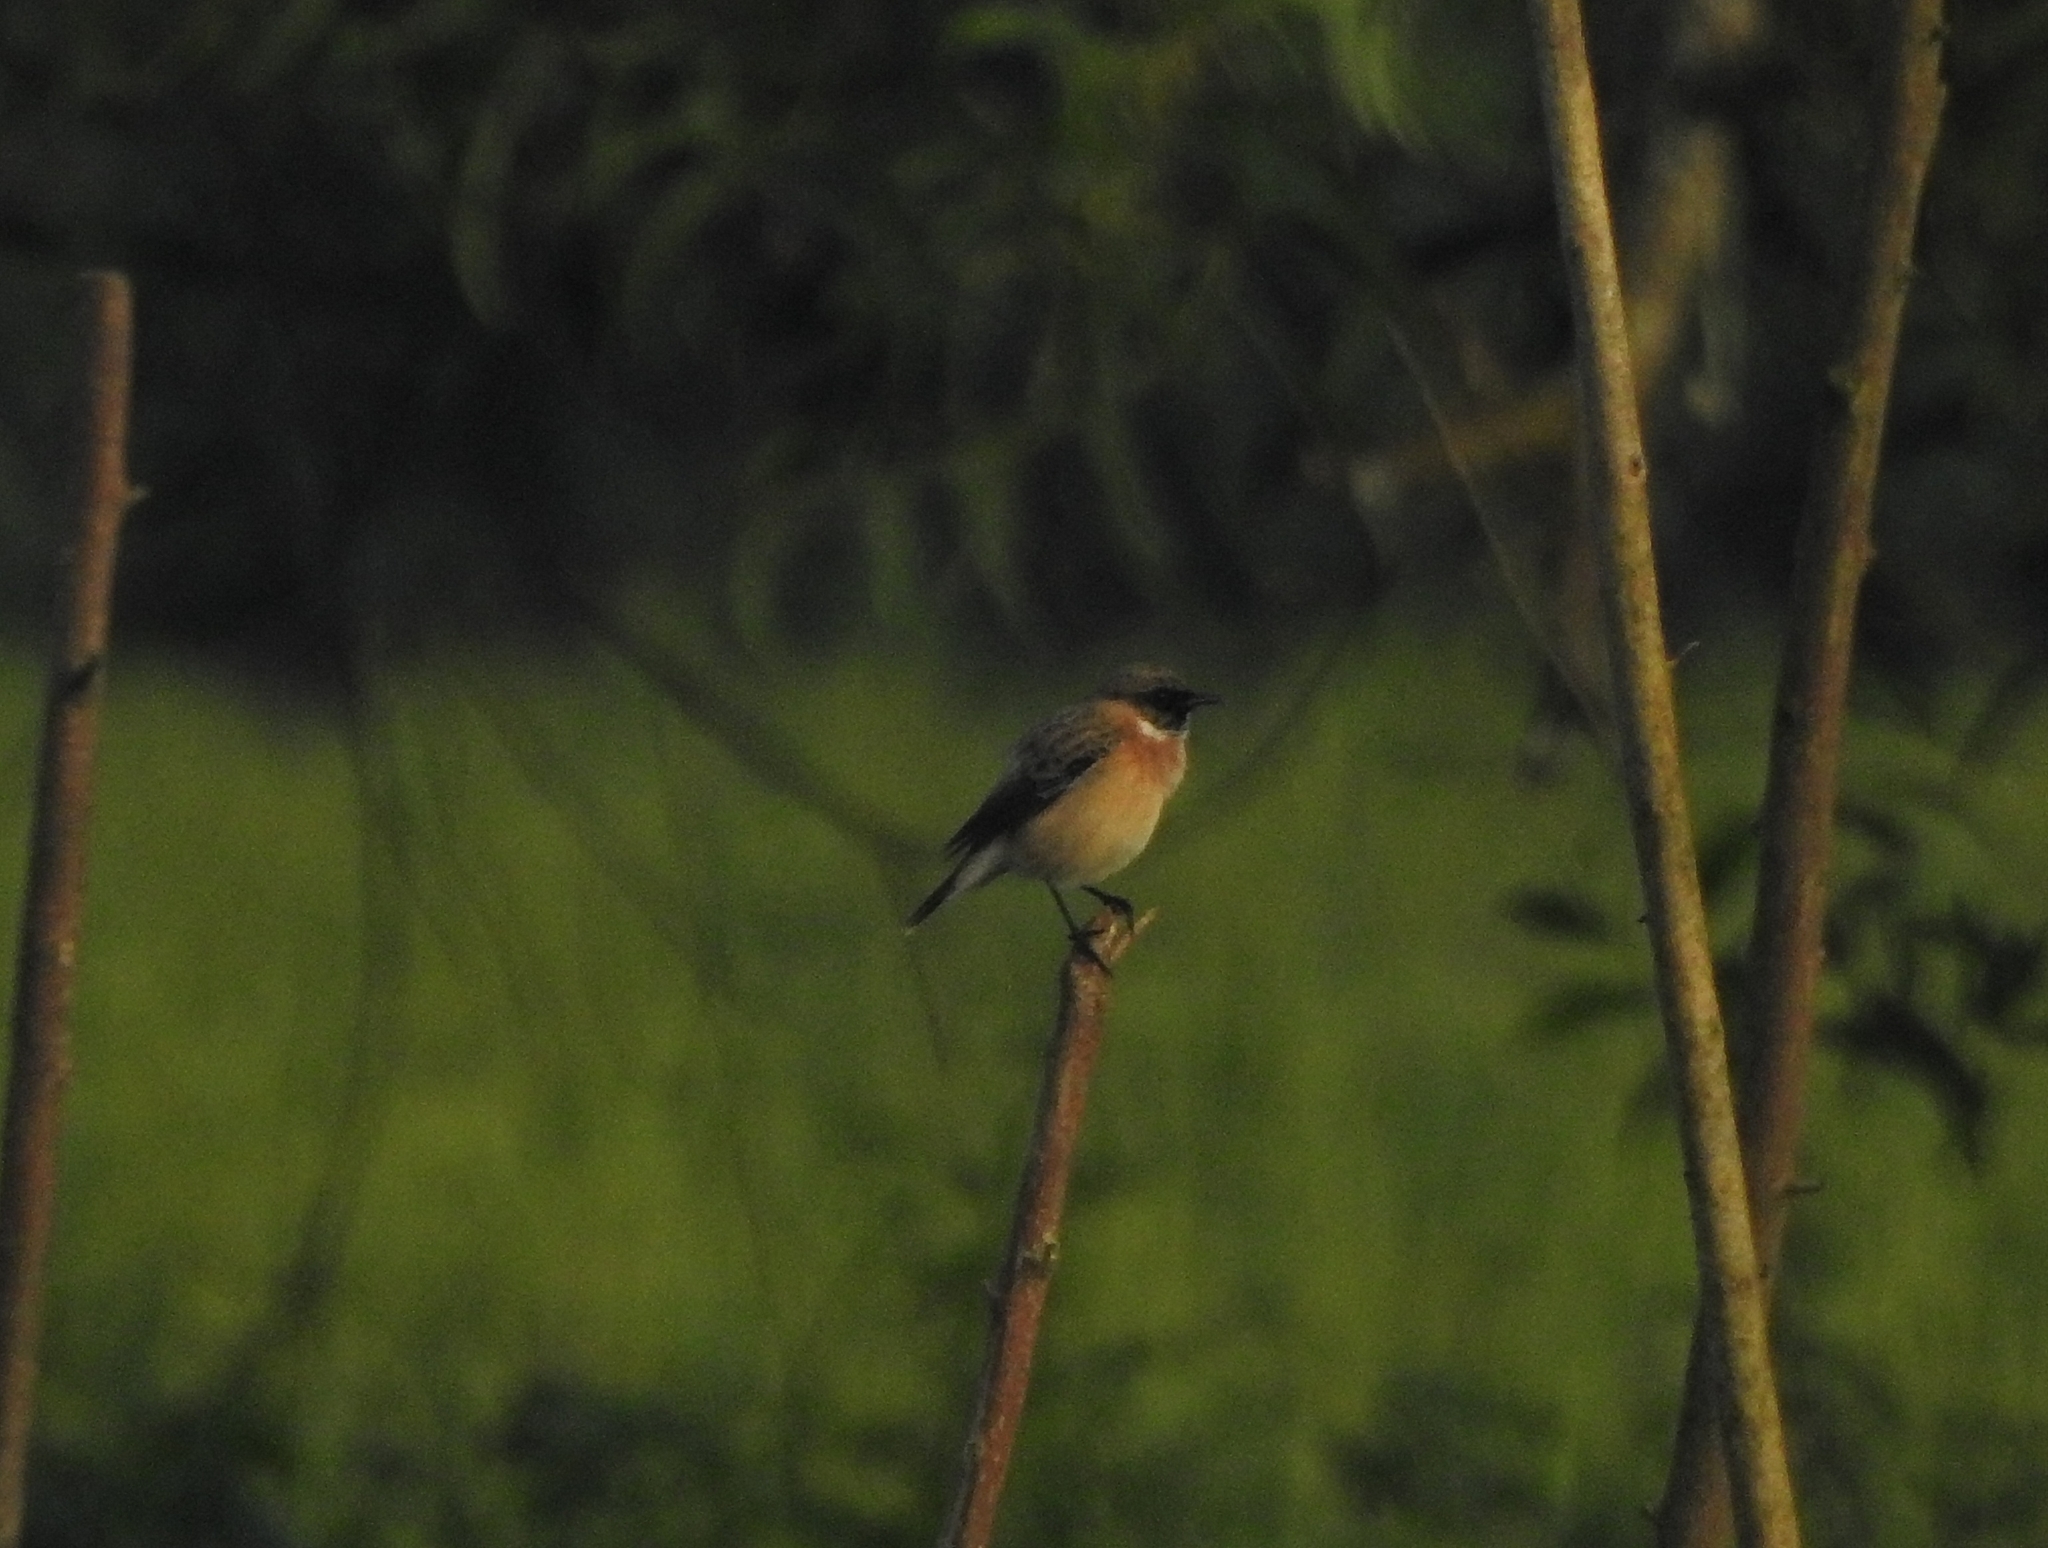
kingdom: Animalia
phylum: Chordata
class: Aves
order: Passeriformes
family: Muscicapidae
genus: Saxicola
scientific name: Saxicola maurus
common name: Siberian stonechat
